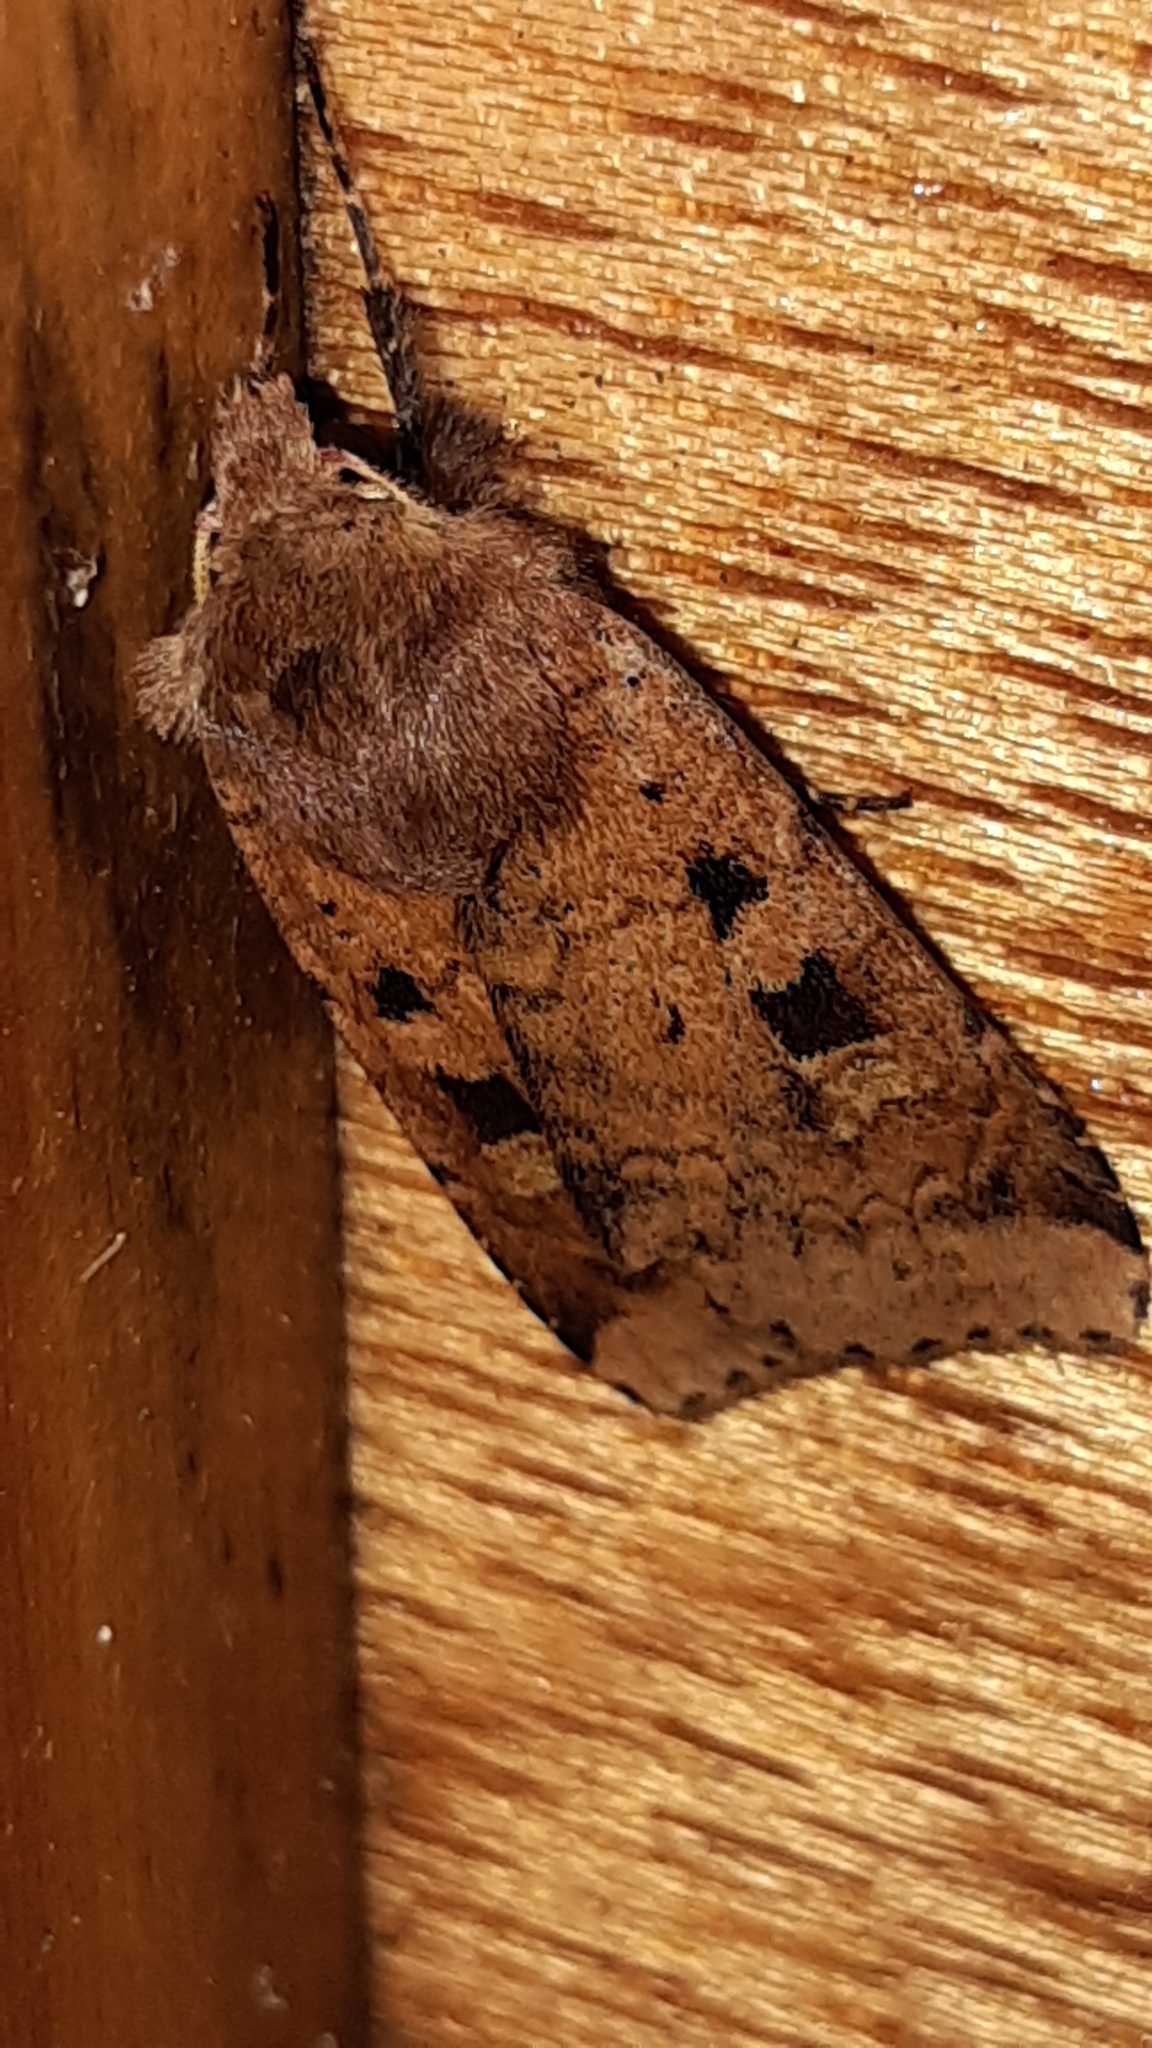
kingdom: Animalia
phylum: Arthropoda
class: Insecta
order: Lepidoptera
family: Noctuidae
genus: Diarsia
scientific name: Diarsia mendica
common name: Ingrailed clay
